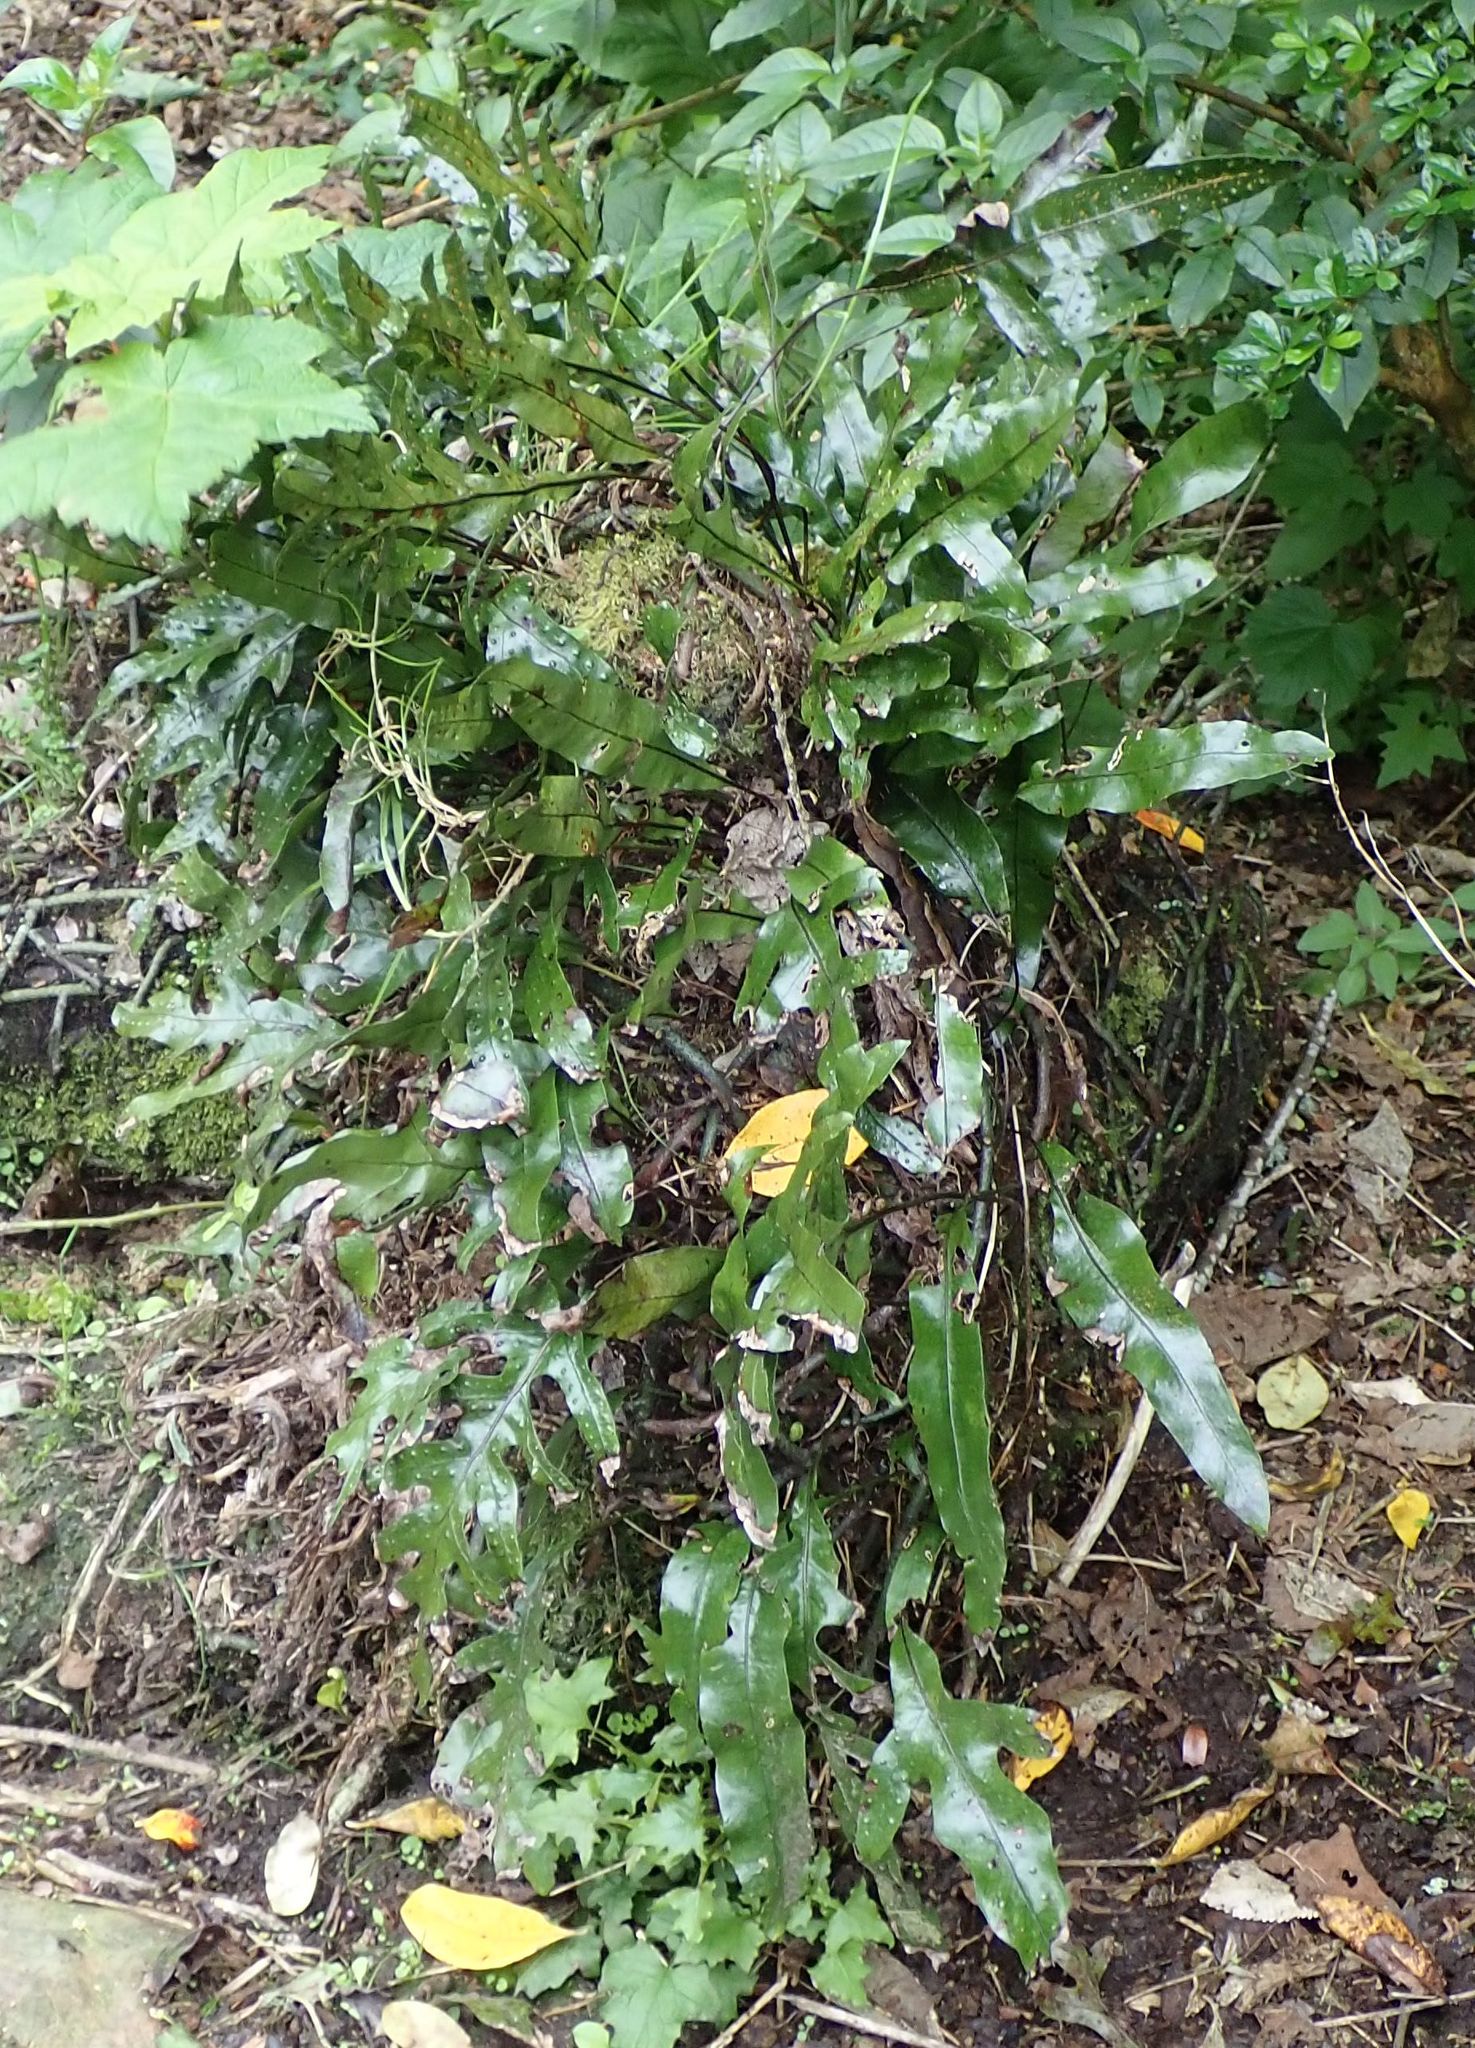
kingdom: Plantae
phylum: Tracheophyta
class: Polypodiopsida
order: Polypodiales
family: Polypodiaceae
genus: Lecanopteris
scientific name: Lecanopteris pustulata
